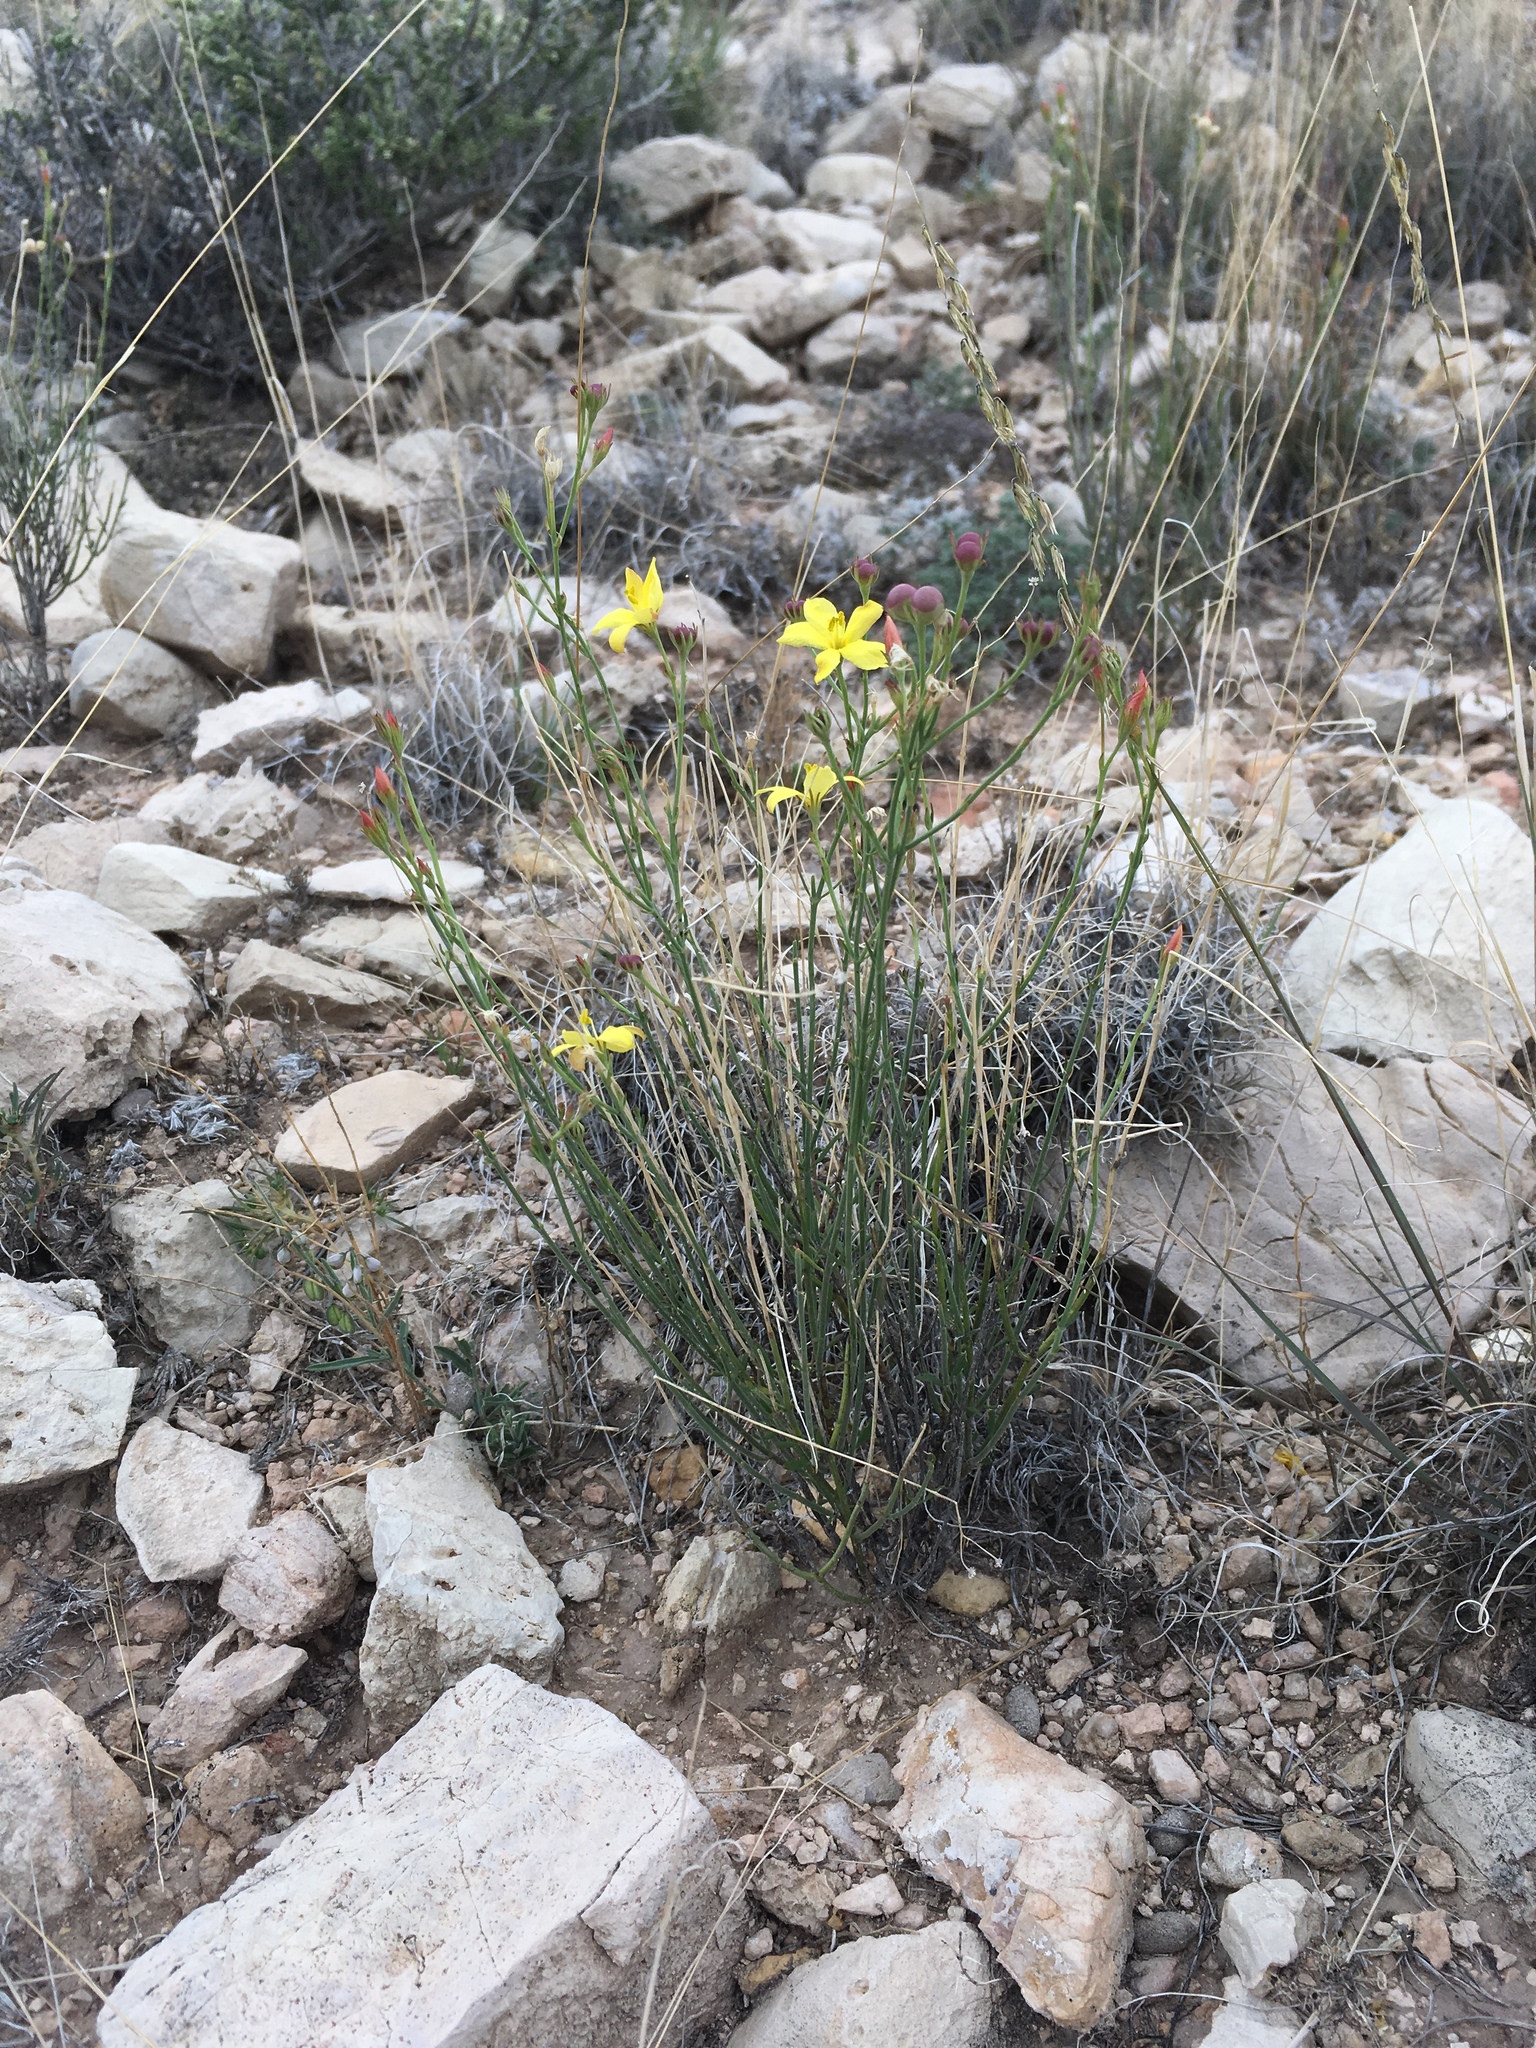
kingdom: Plantae
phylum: Tracheophyta
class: Magnoliopsida
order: Lamiales
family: Oleaceae
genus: Menodora
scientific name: Menodora scabra
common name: Rough menodora
